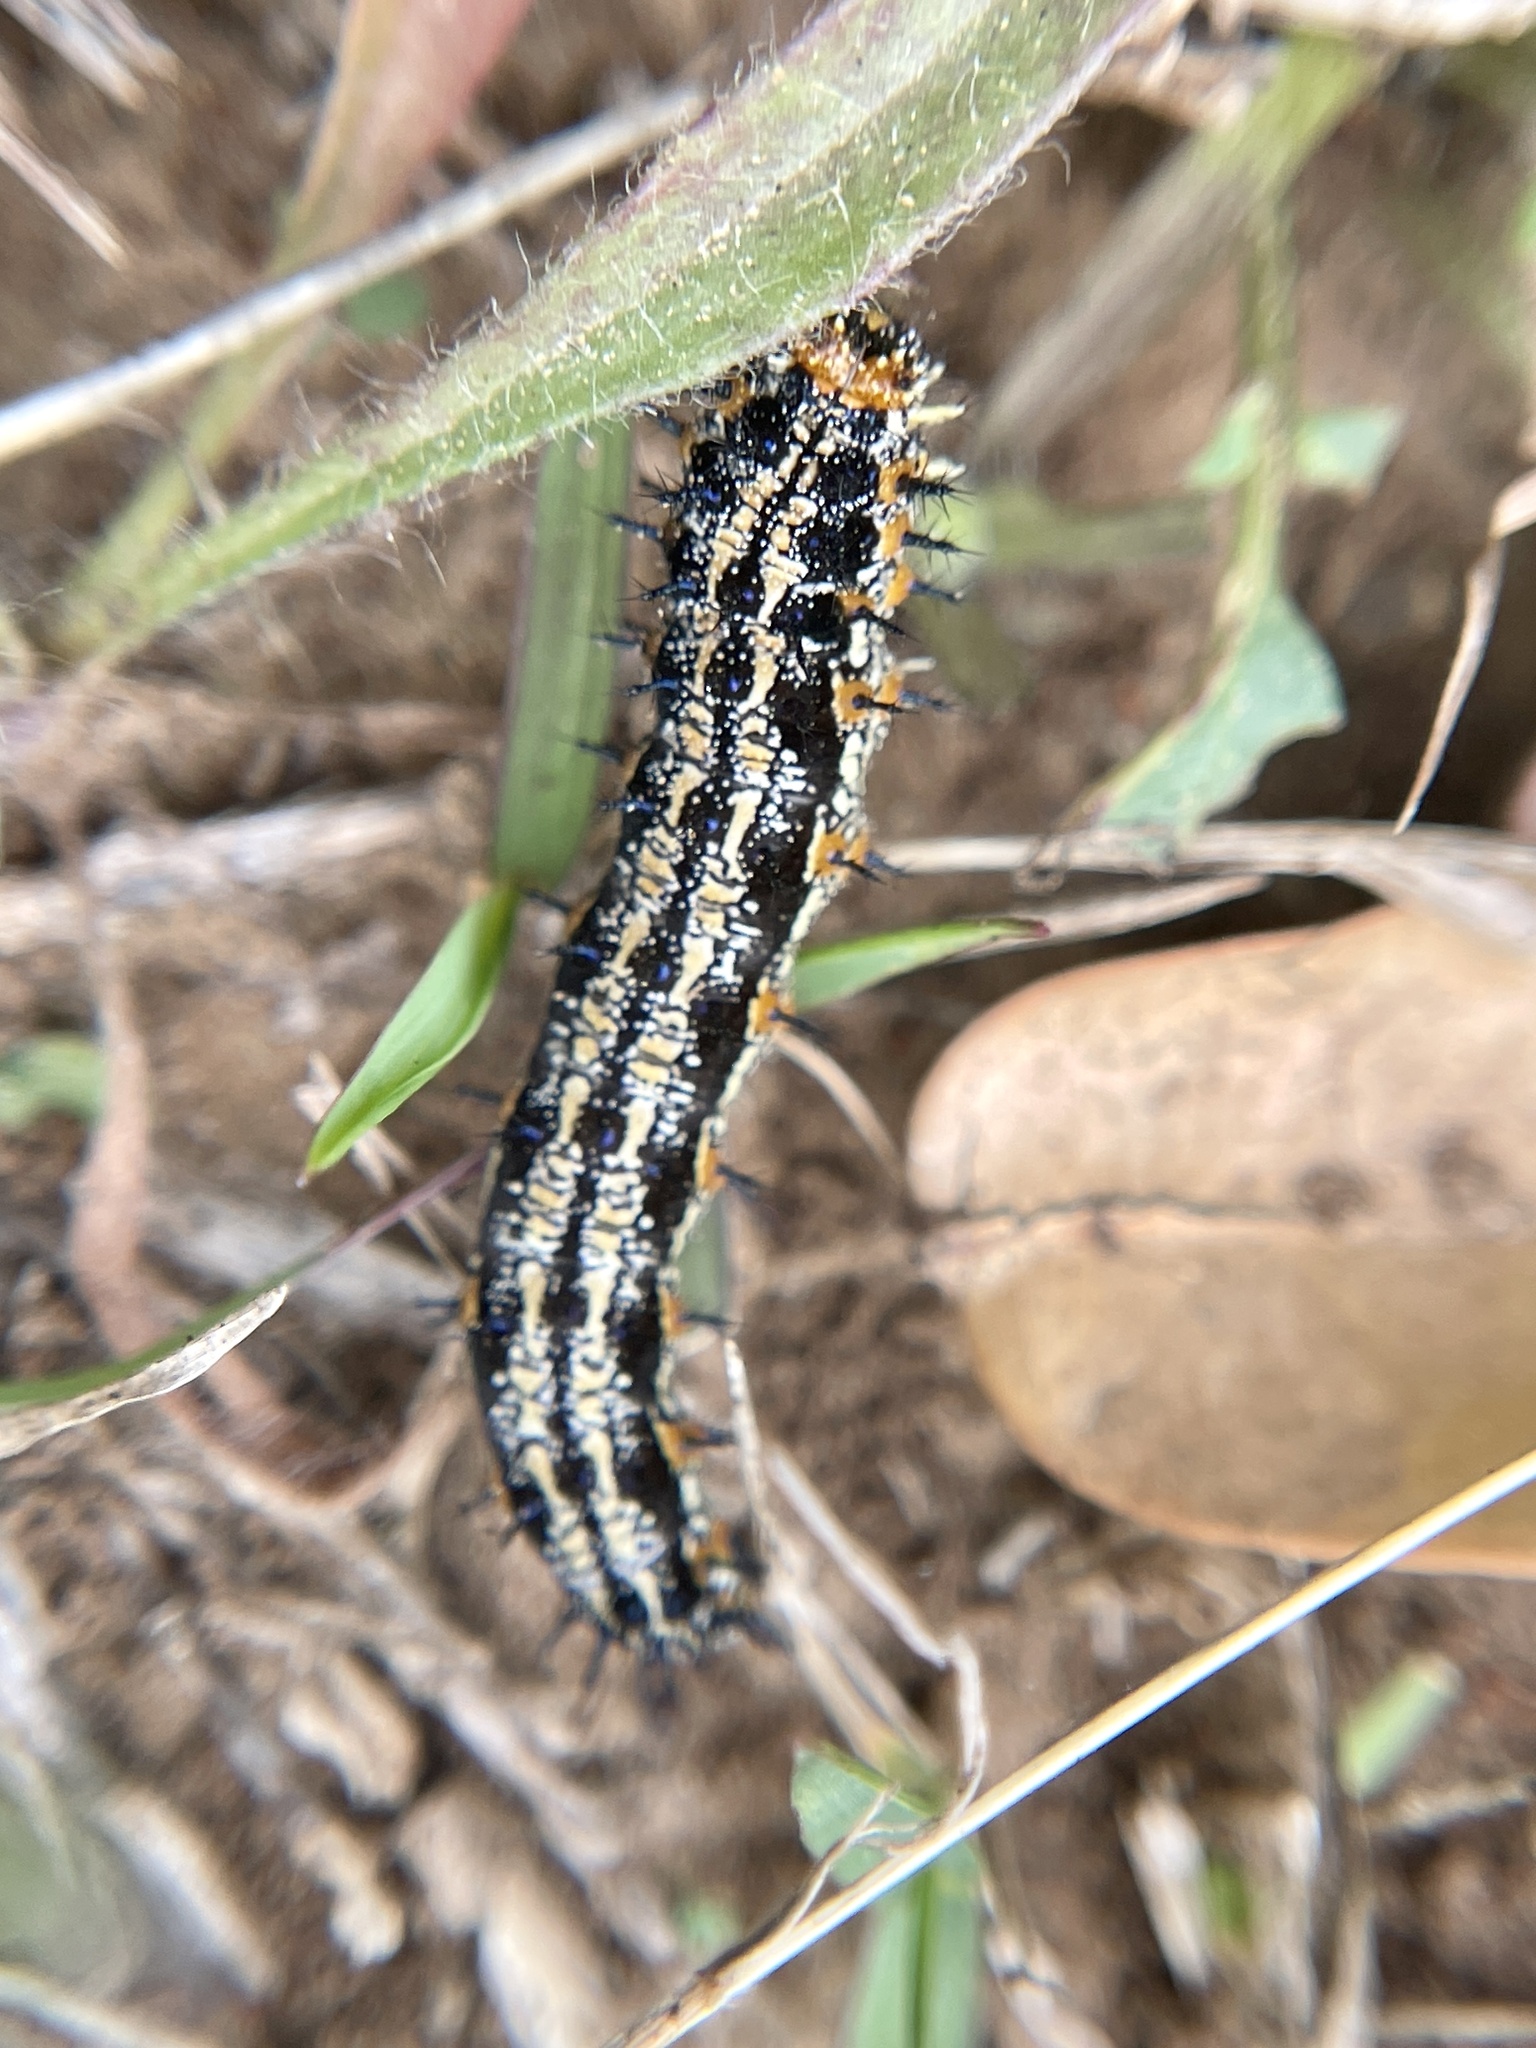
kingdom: Animalia
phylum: Arthropoda
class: Insecta
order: Lepidoptera
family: Nymphalidae
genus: Junonia
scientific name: Junonia coenia
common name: Common buckeye
